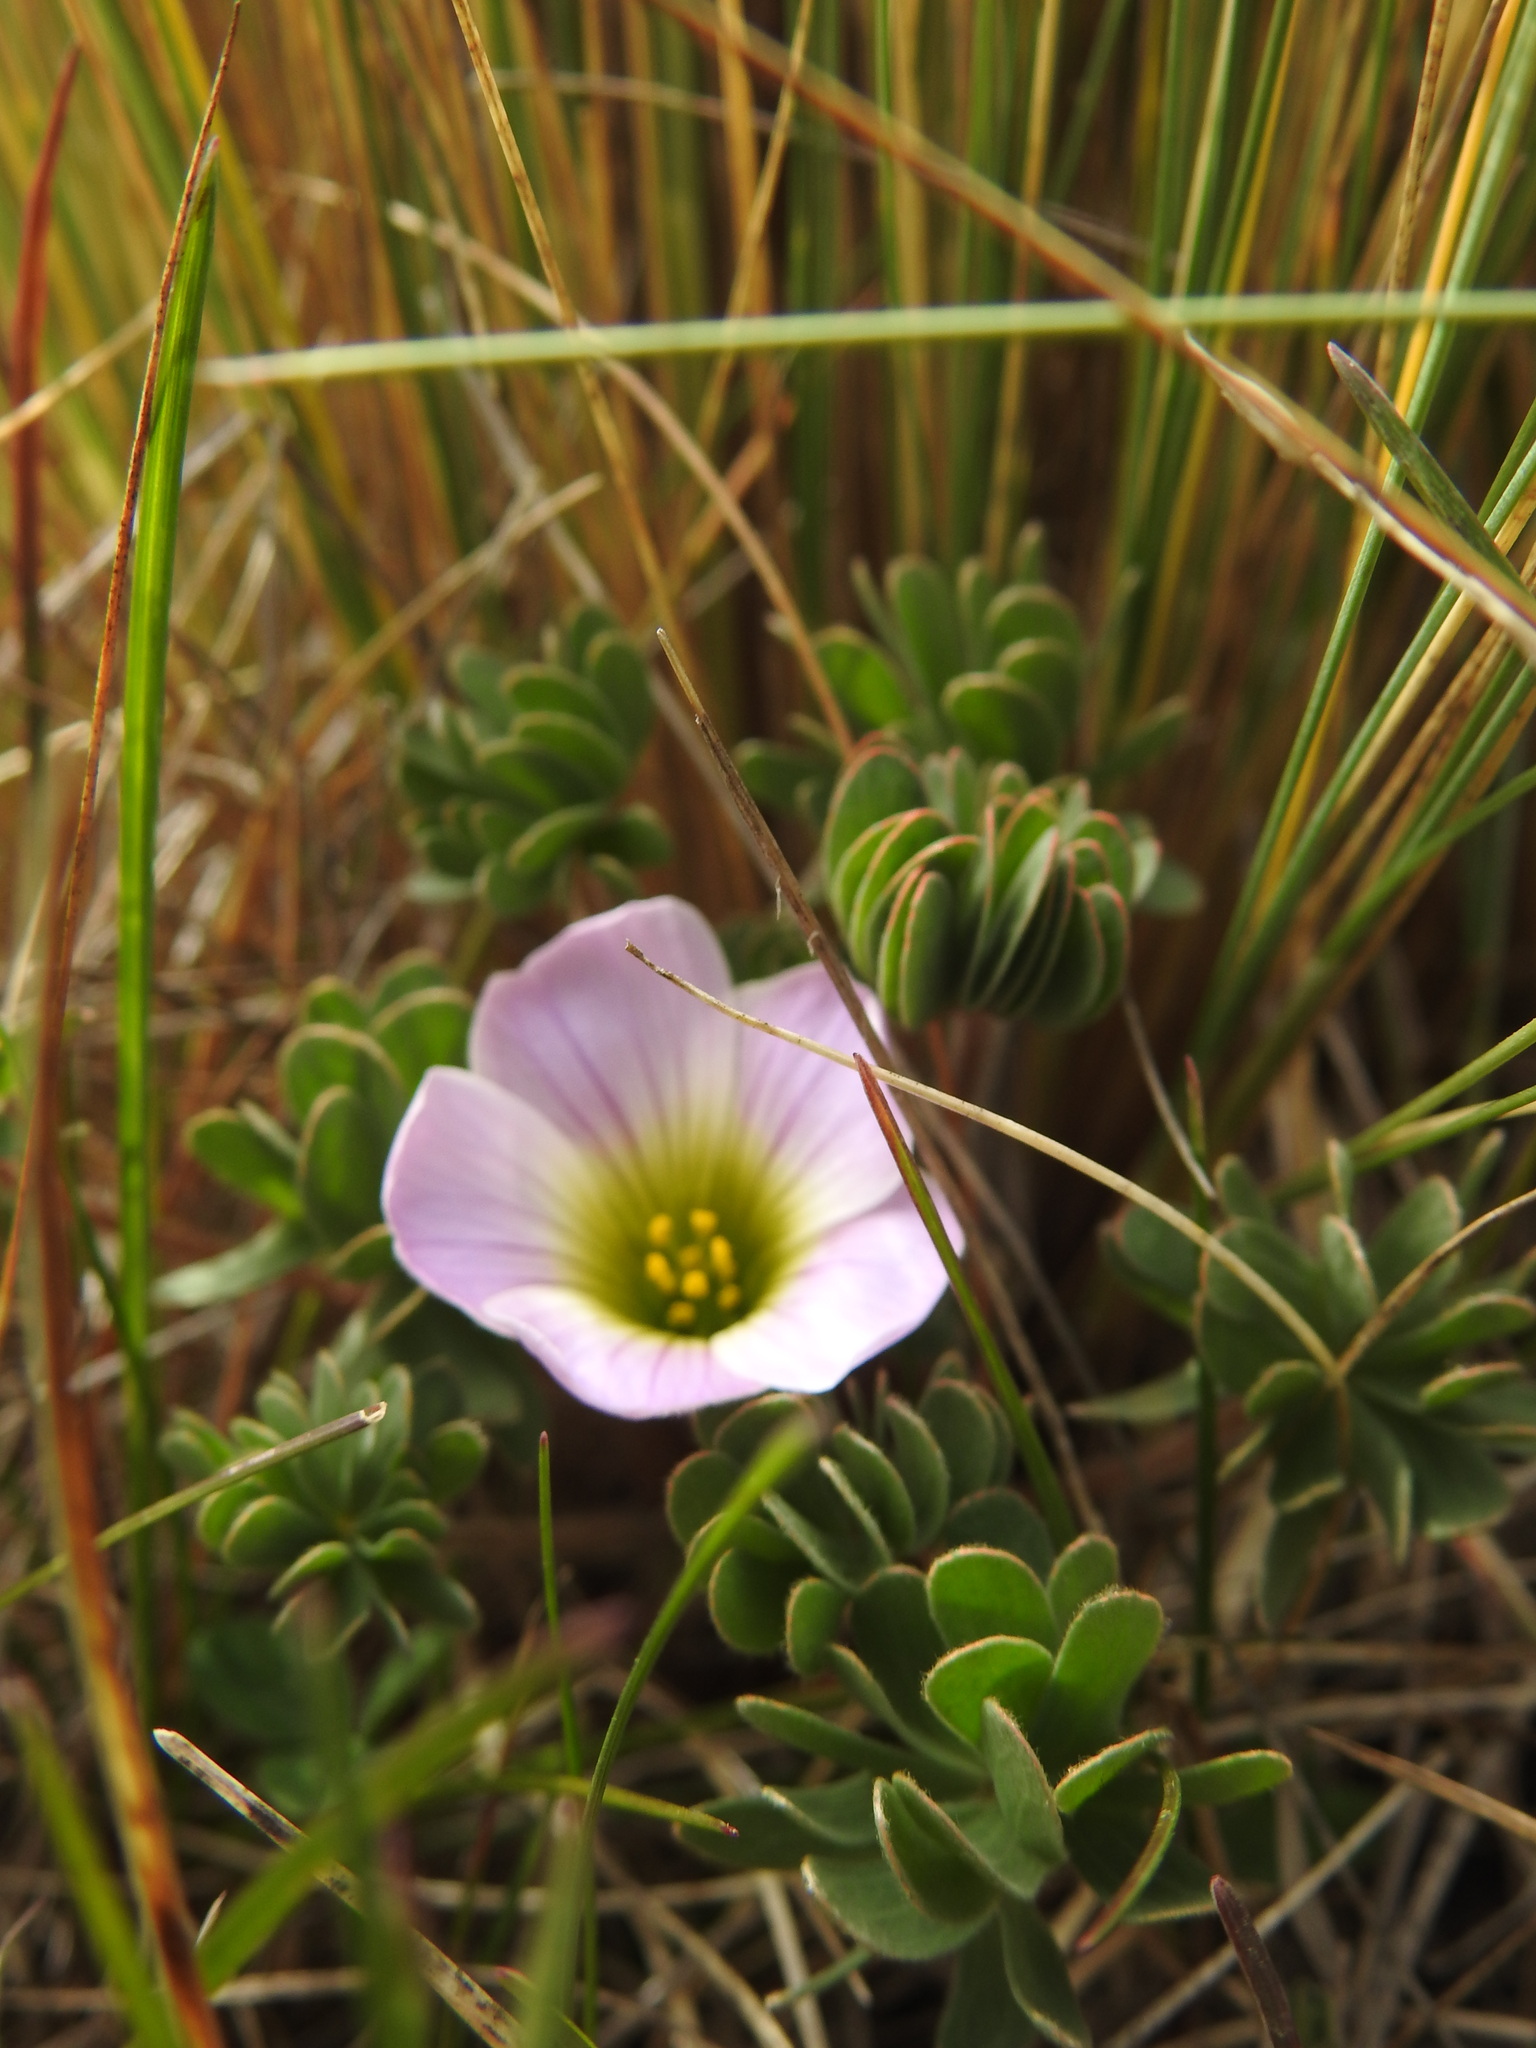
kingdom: Plantae
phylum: Tracheophyta
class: Magnoliopsida
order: Oxalidales
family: Oxalidaceae
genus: Oxalis
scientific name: Oxalis enneaphylla
